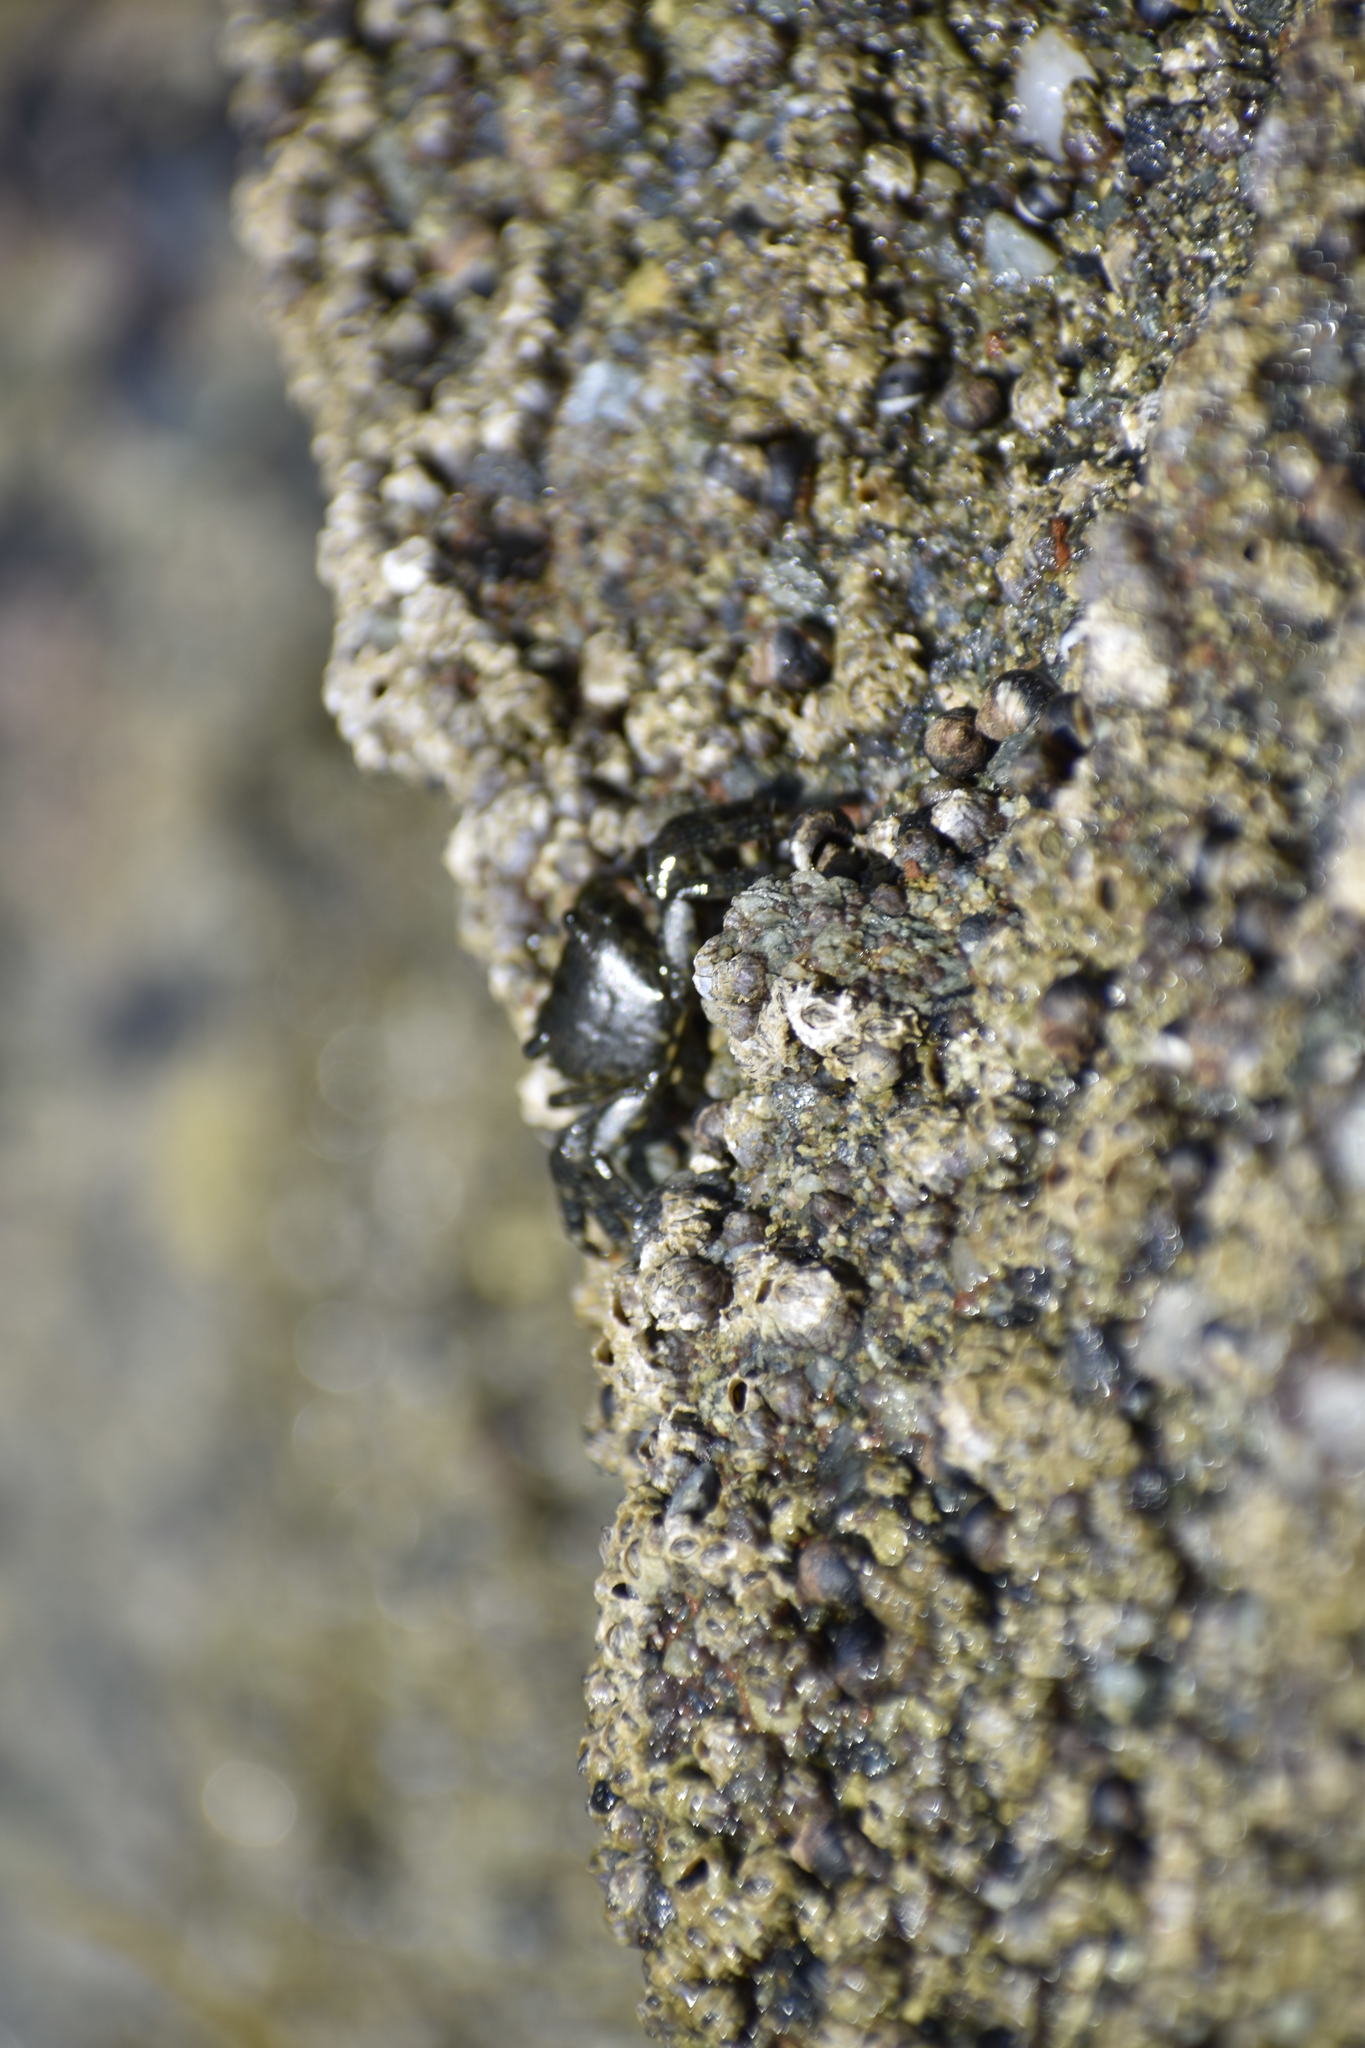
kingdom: Animalia
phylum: Arthropoda
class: Malacostraca
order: Decapoda
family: Grapsidae
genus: Pachygrapsus
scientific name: Pachygrapsus crassipes
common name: Striped shore crab
